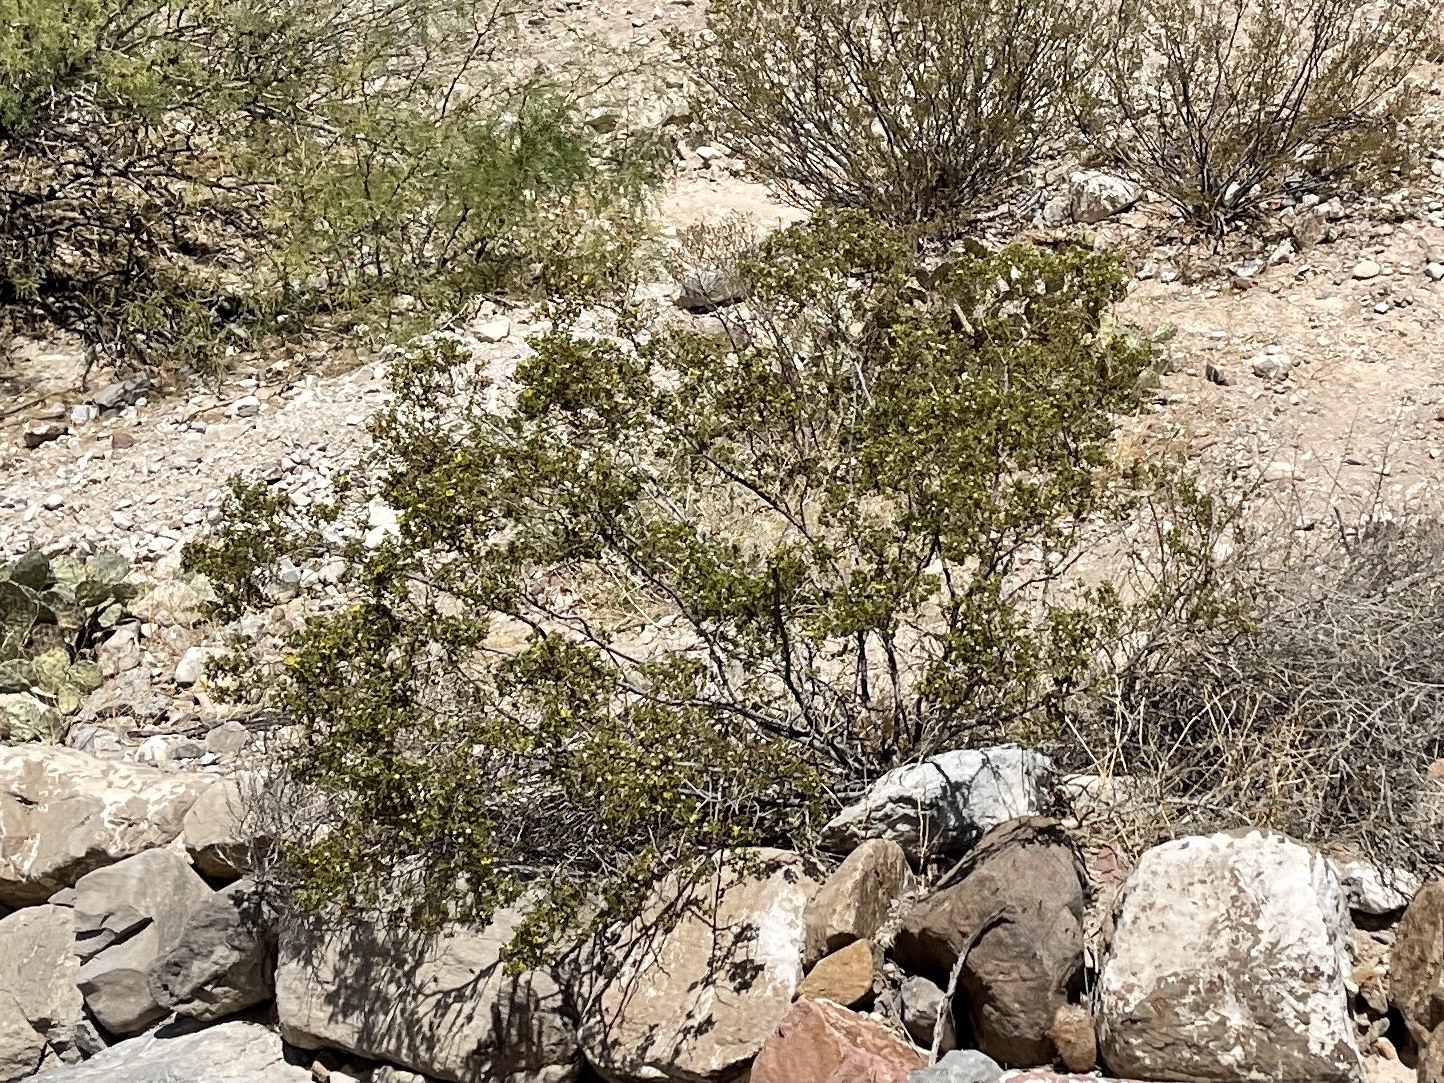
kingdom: Plantae
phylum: Tracheophyta
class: Magnoliopsida
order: Zygophyllales
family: Zygophyllaceae
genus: Larrea
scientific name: Larrea tridentata
